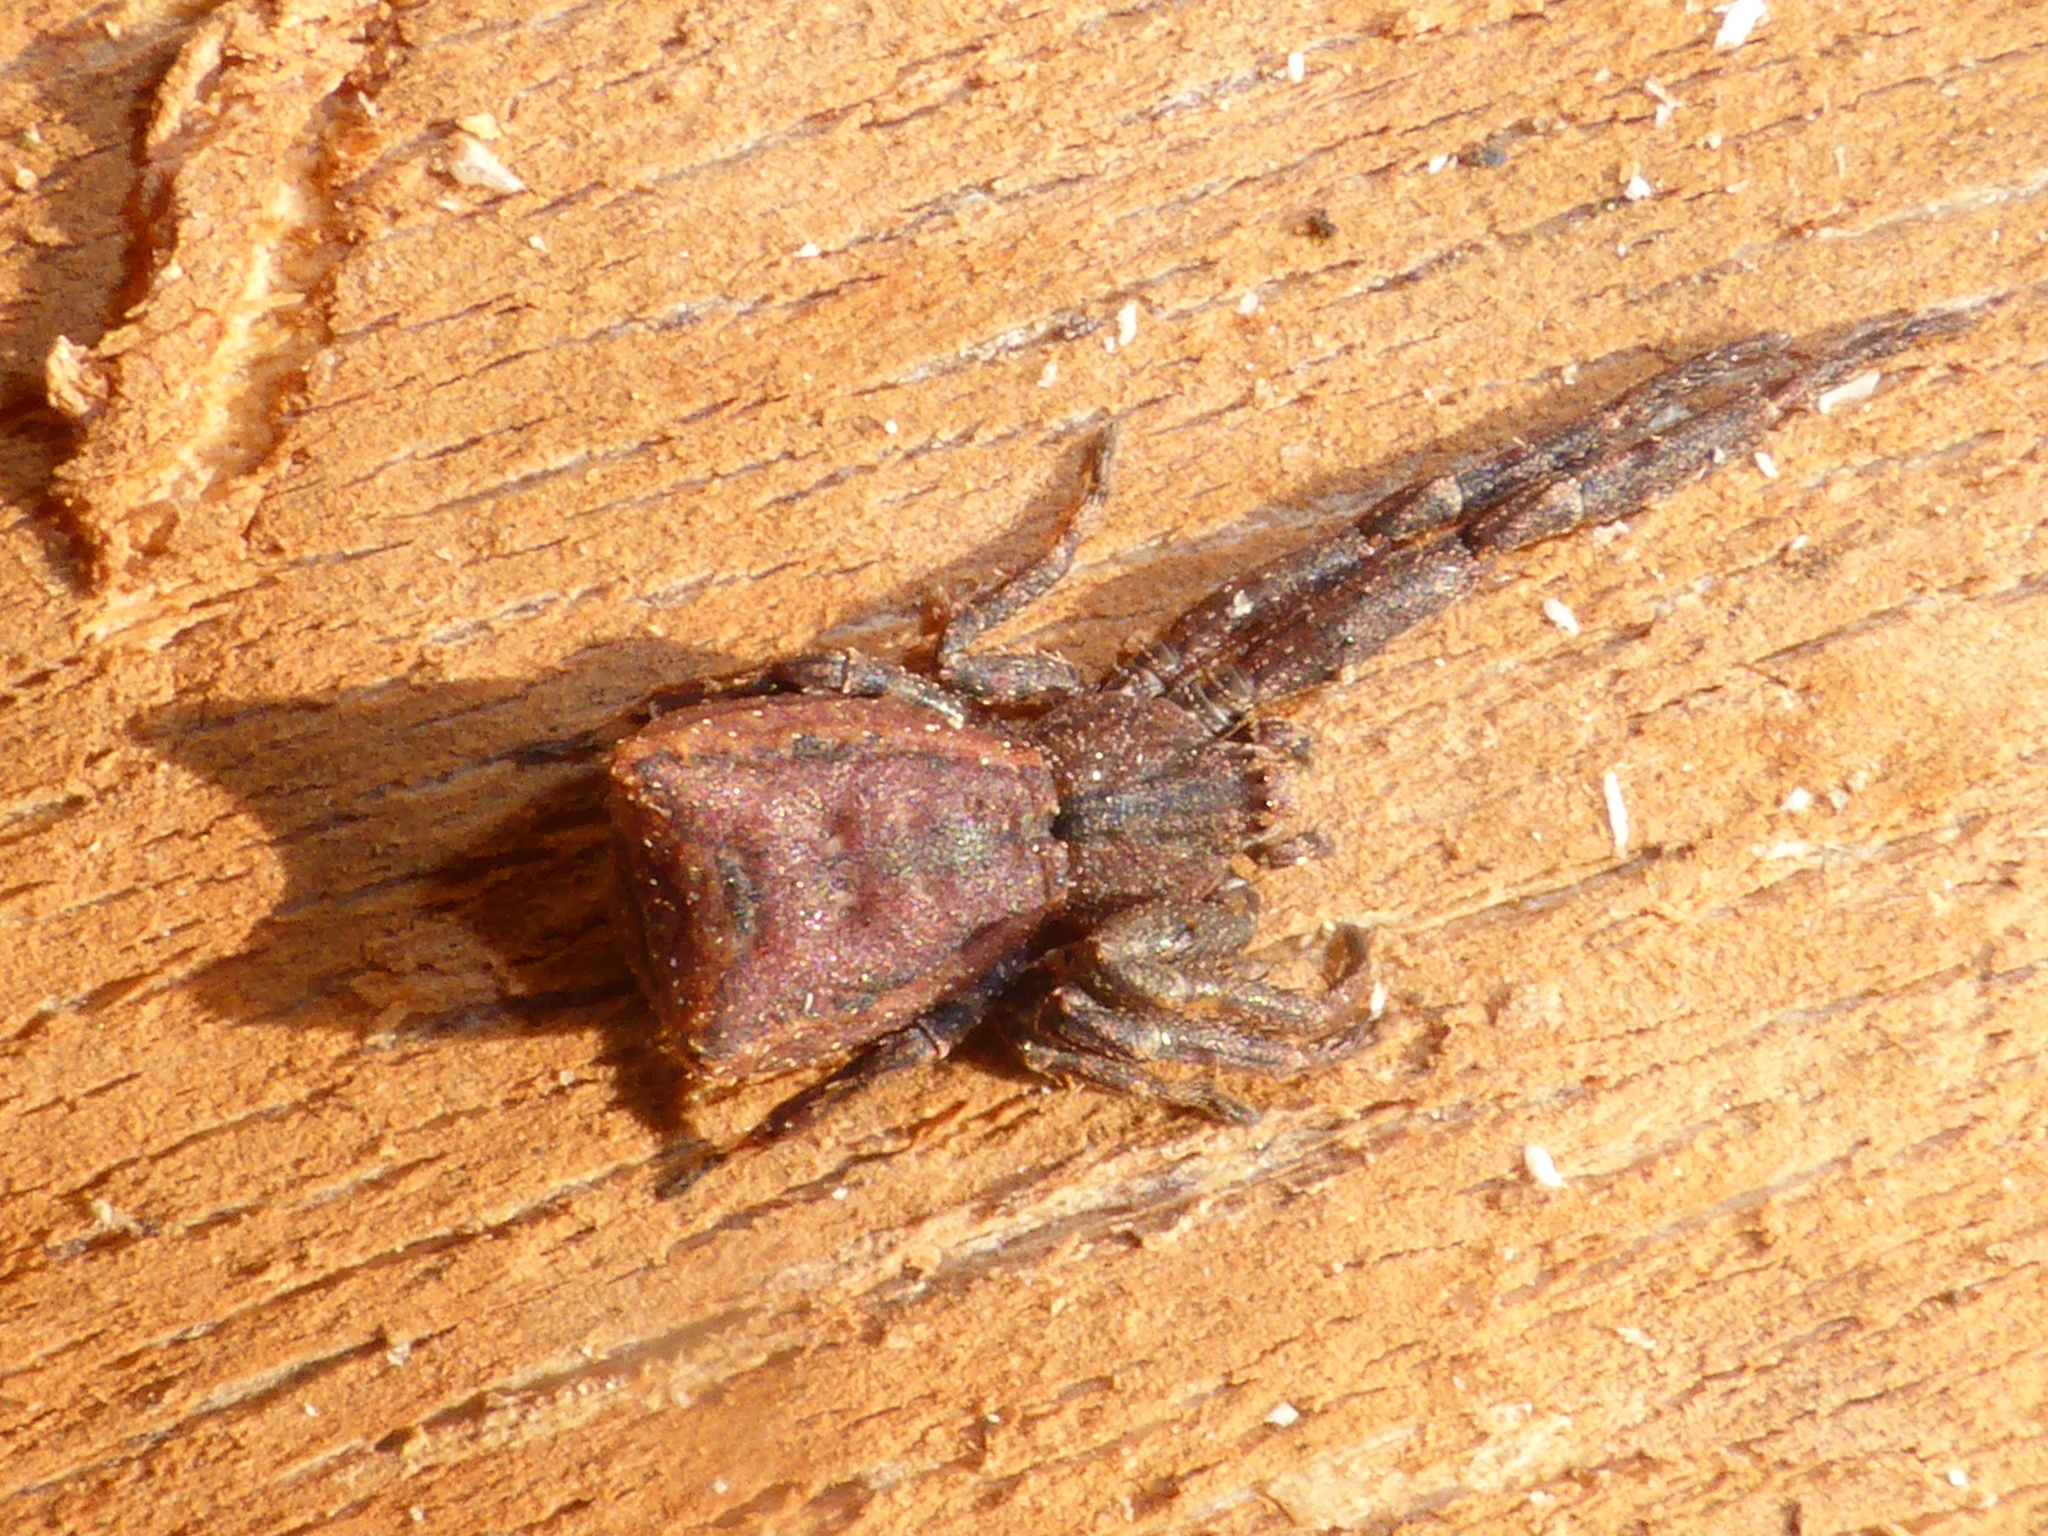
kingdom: Animalia
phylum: Arthropoda
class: Arachnida
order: Araneae
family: Thomisidae
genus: Sidymella
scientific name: Sidymella angulata
